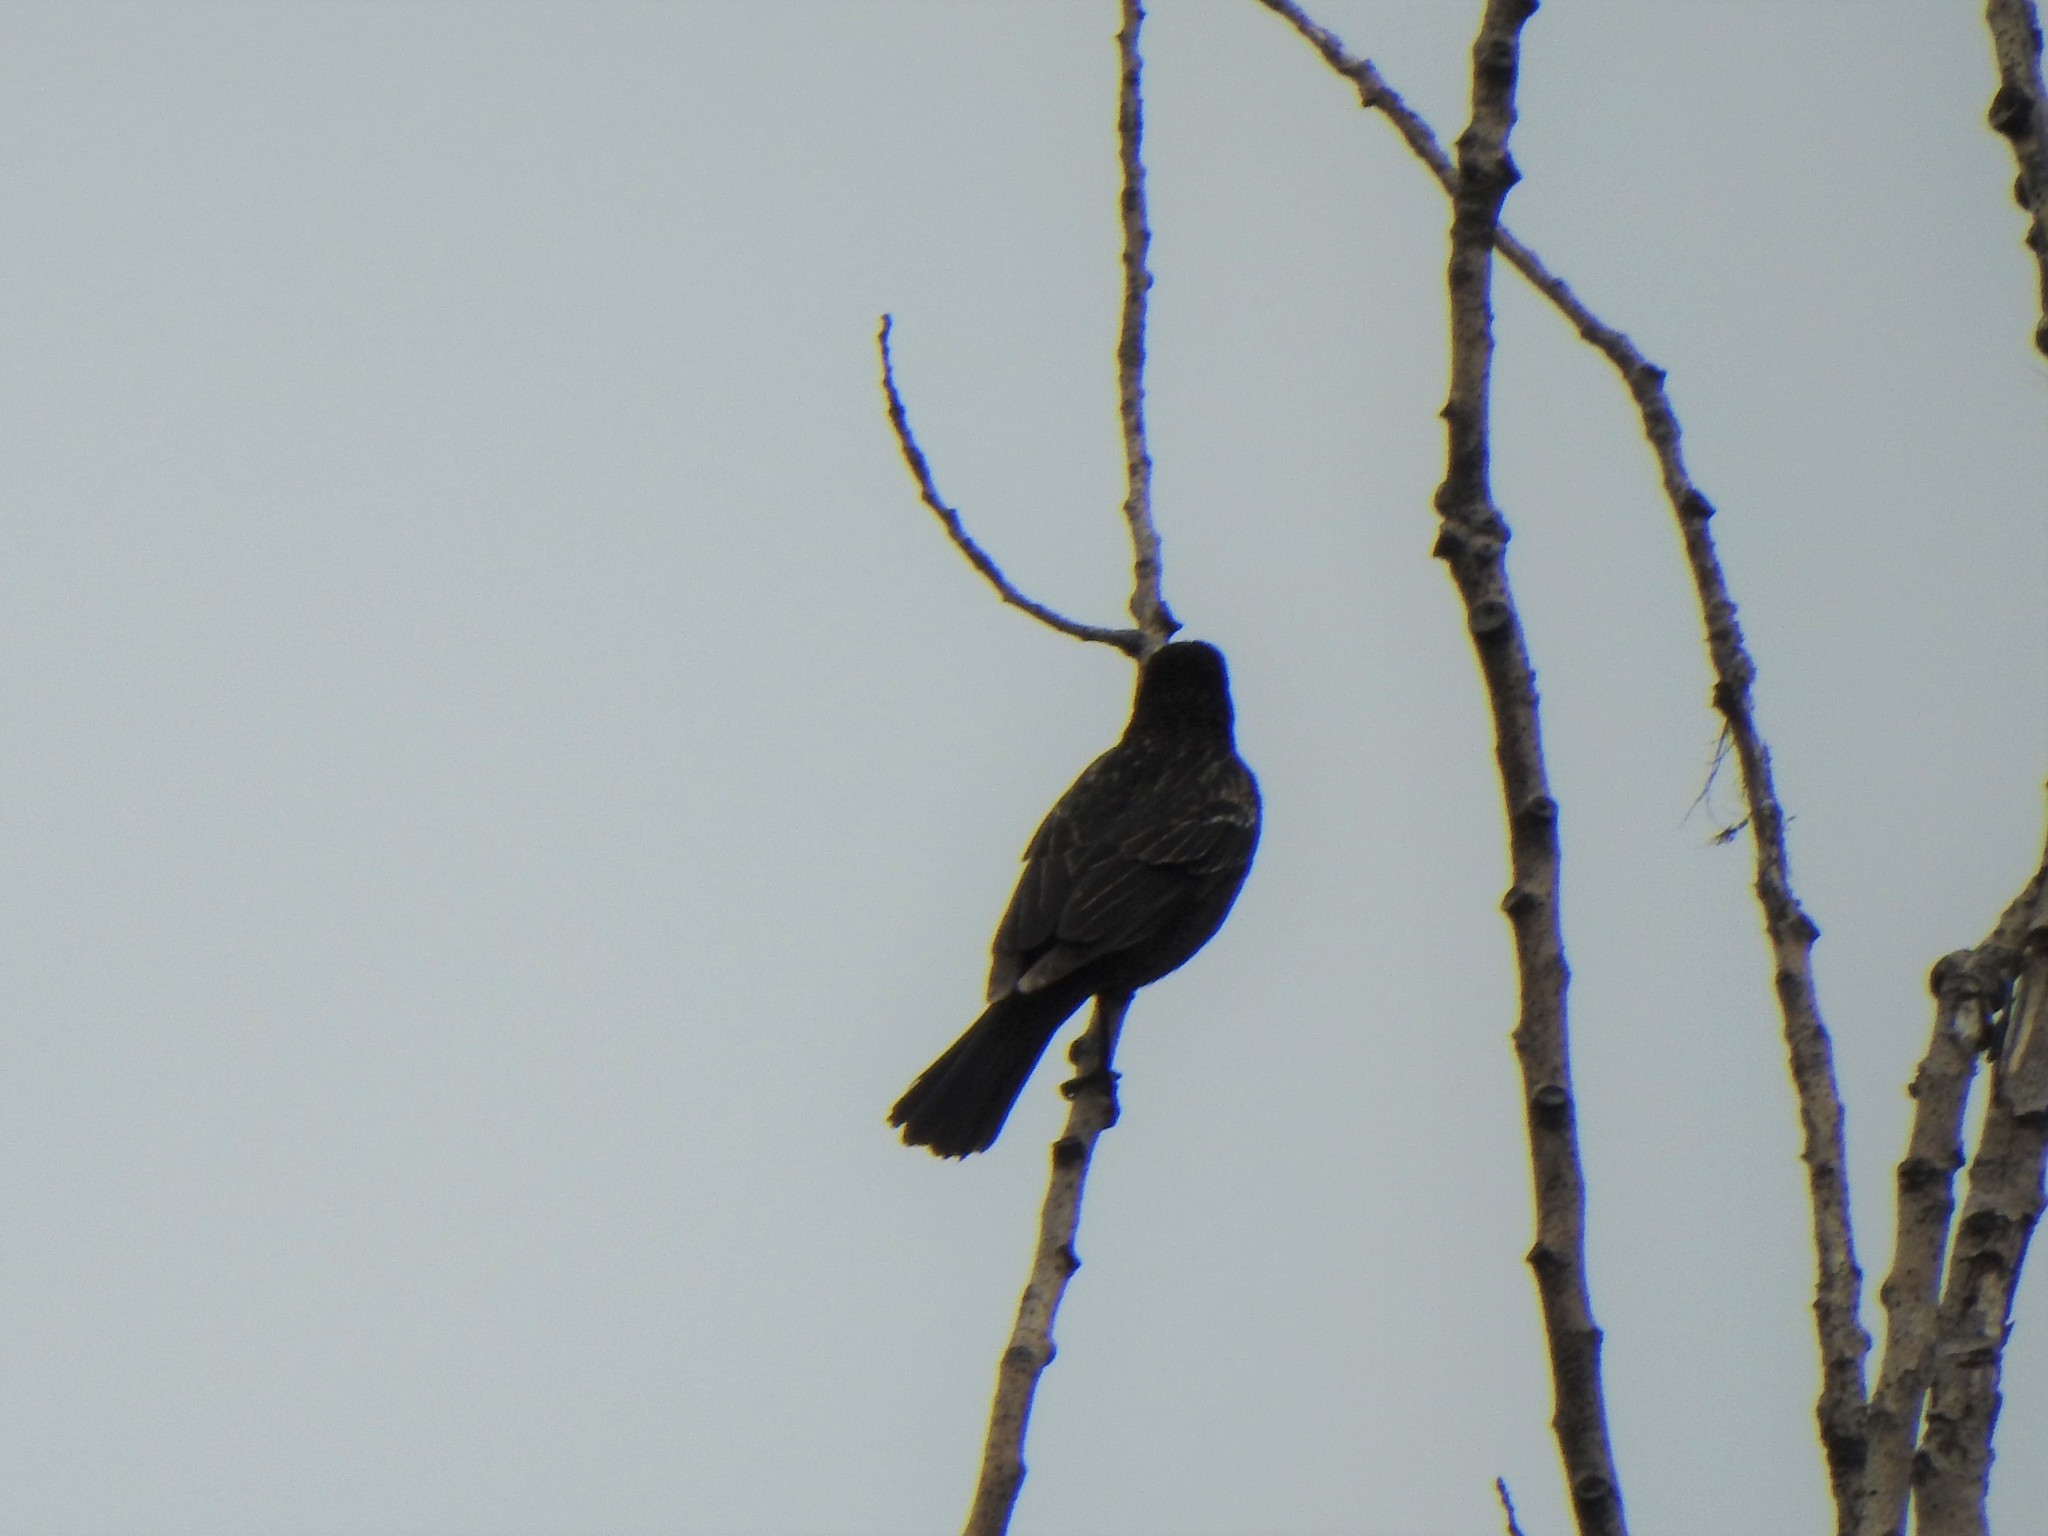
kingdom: Animalia
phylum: Chordata
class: Aves
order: Passeriformes
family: Icteridae
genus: Agelaius
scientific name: Agelaius phoeniceus
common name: Red-winged blackbird
